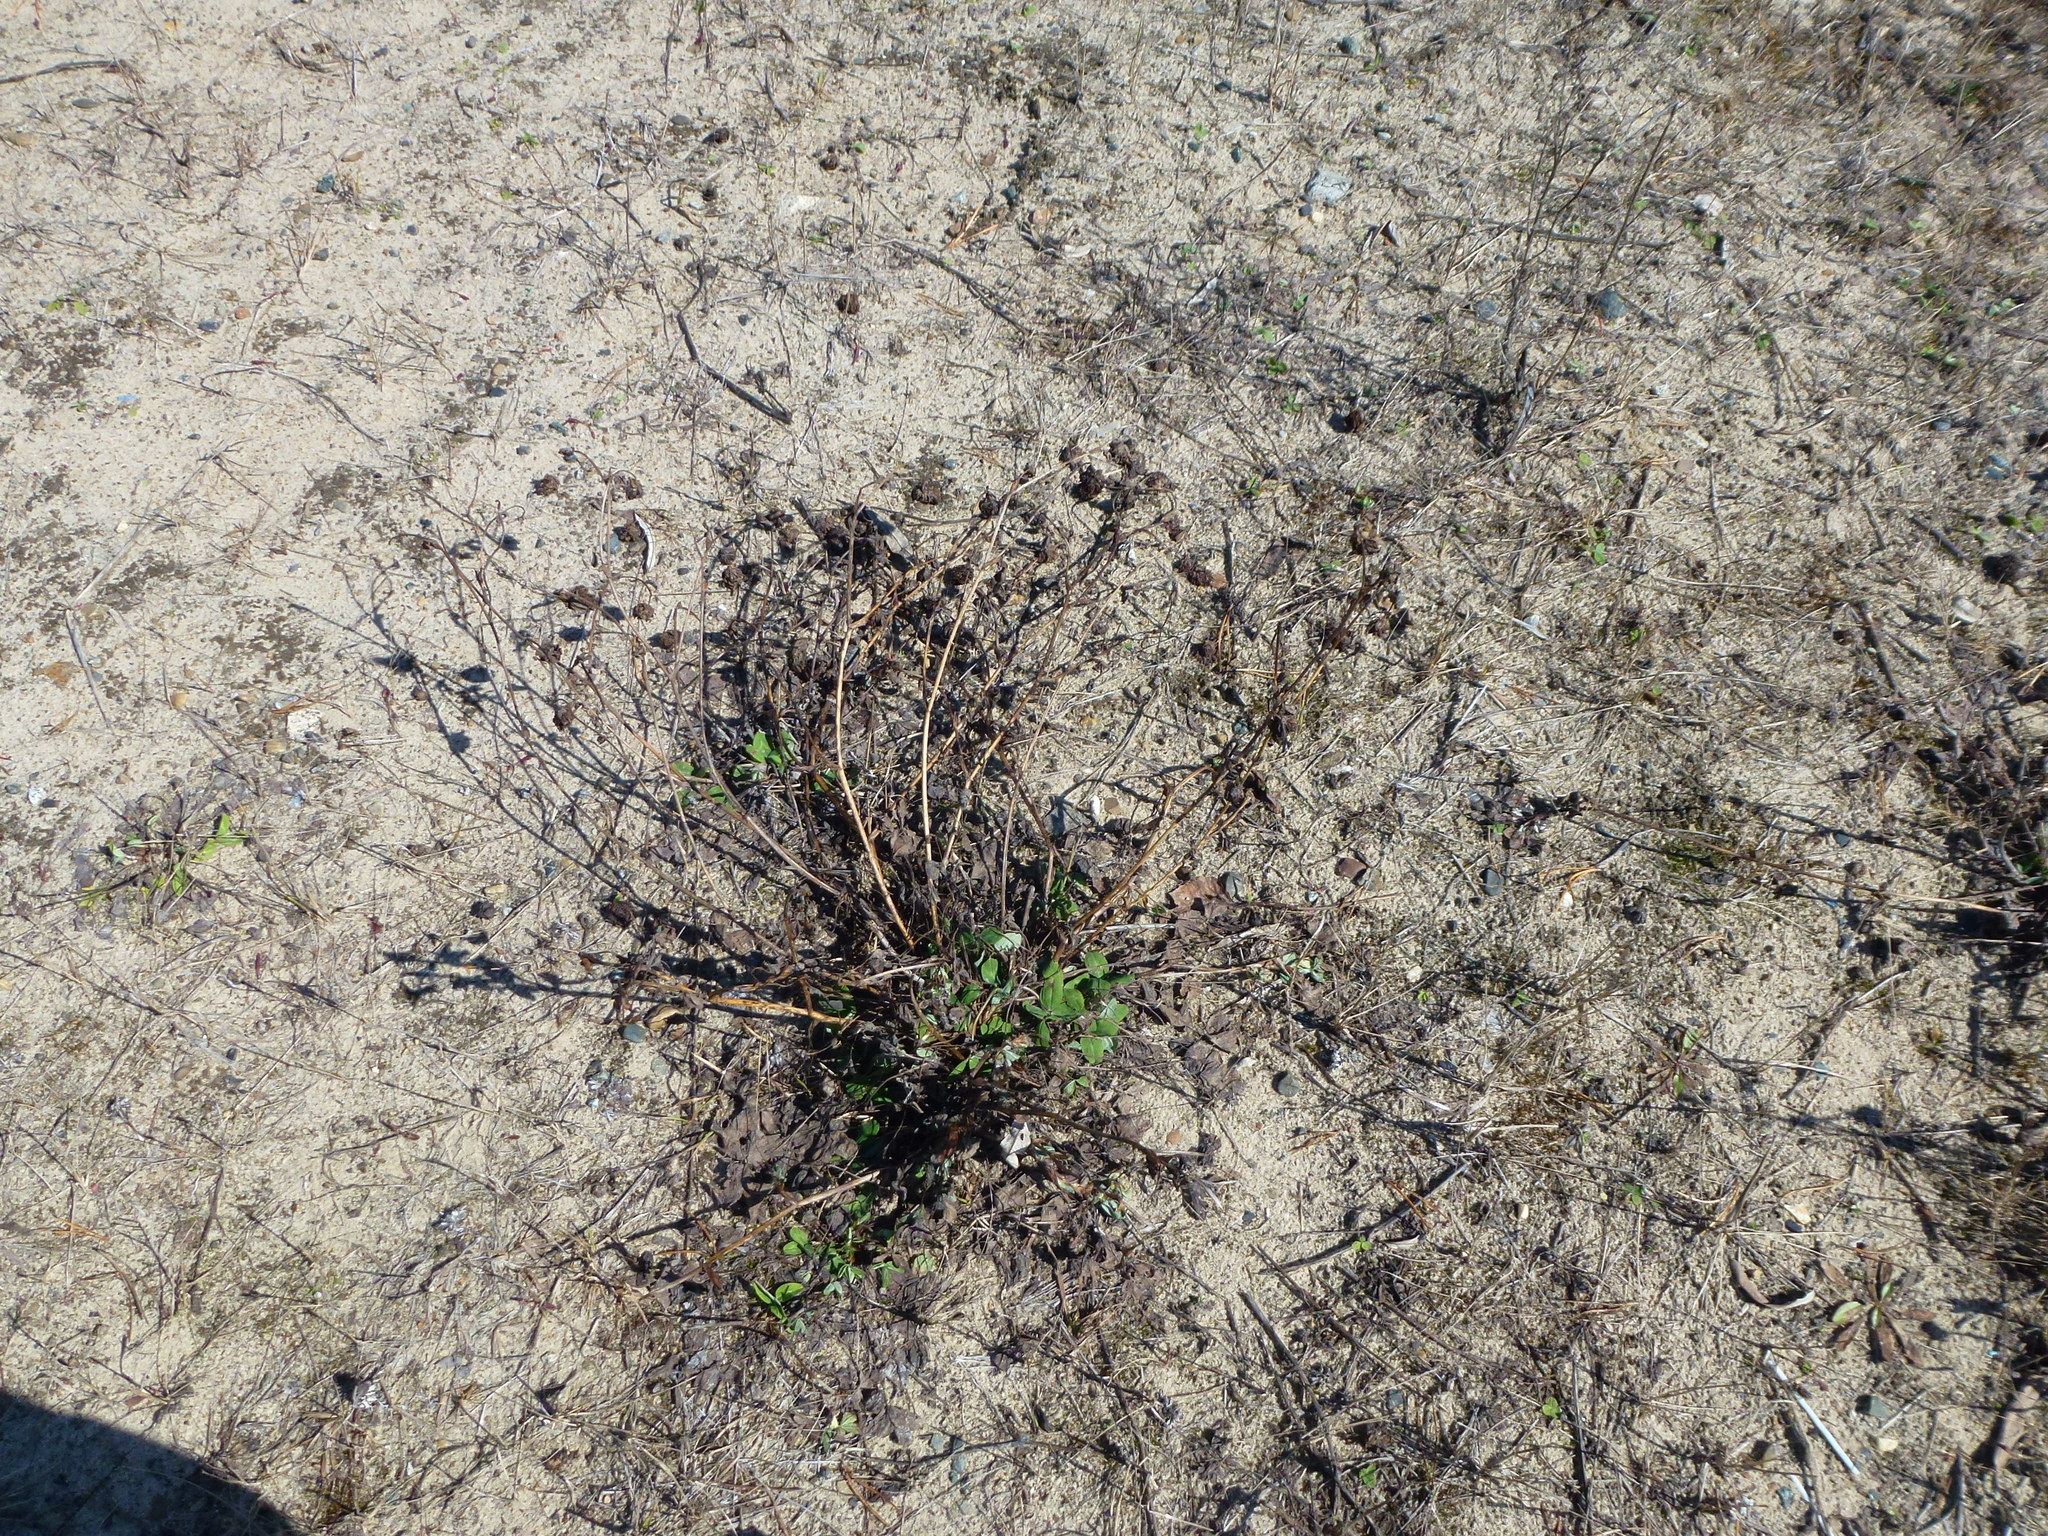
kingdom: Plantae
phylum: Tracheophyta
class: Magnoliopsida
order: Fabales
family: Fabaceae
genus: Trifolium
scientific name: Trifolium pratense
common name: Red clover
